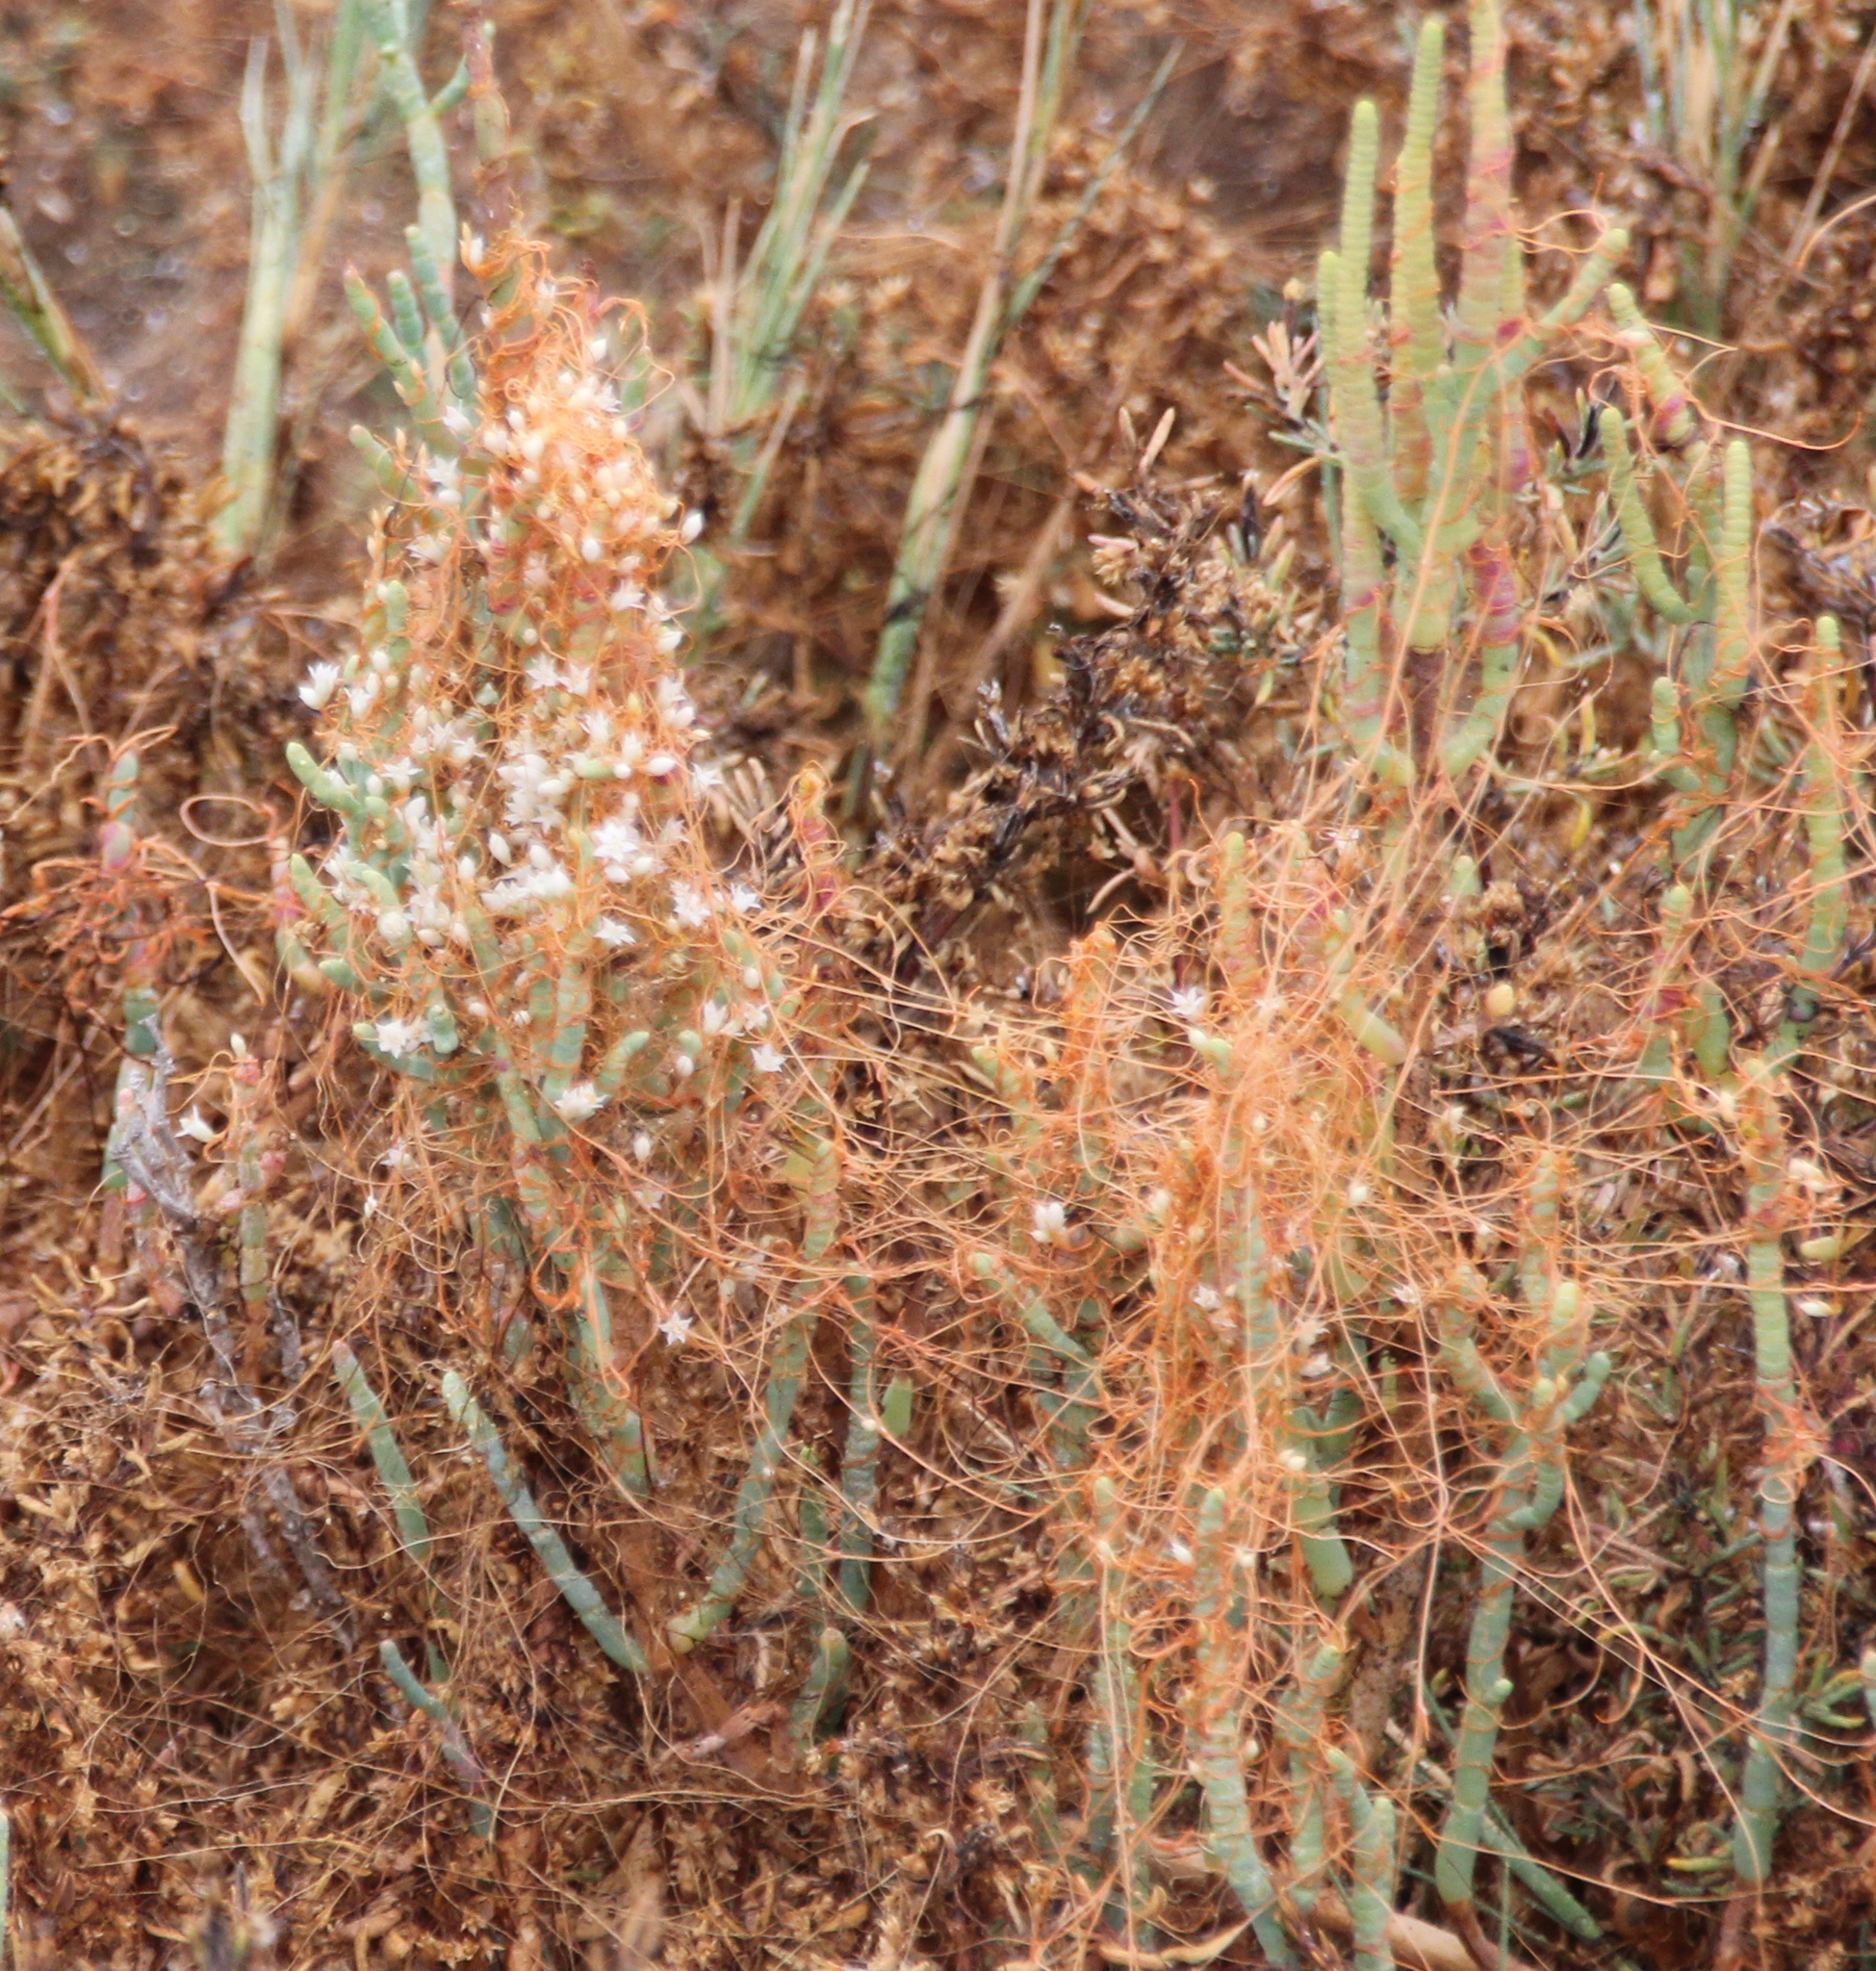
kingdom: Plantae
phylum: Tracheophyta
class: Magnoliopsida
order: Solanales
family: Convolvulaceae
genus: Cuscuta
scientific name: Cuscuta pacifica
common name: Large saltmarsh dodder
